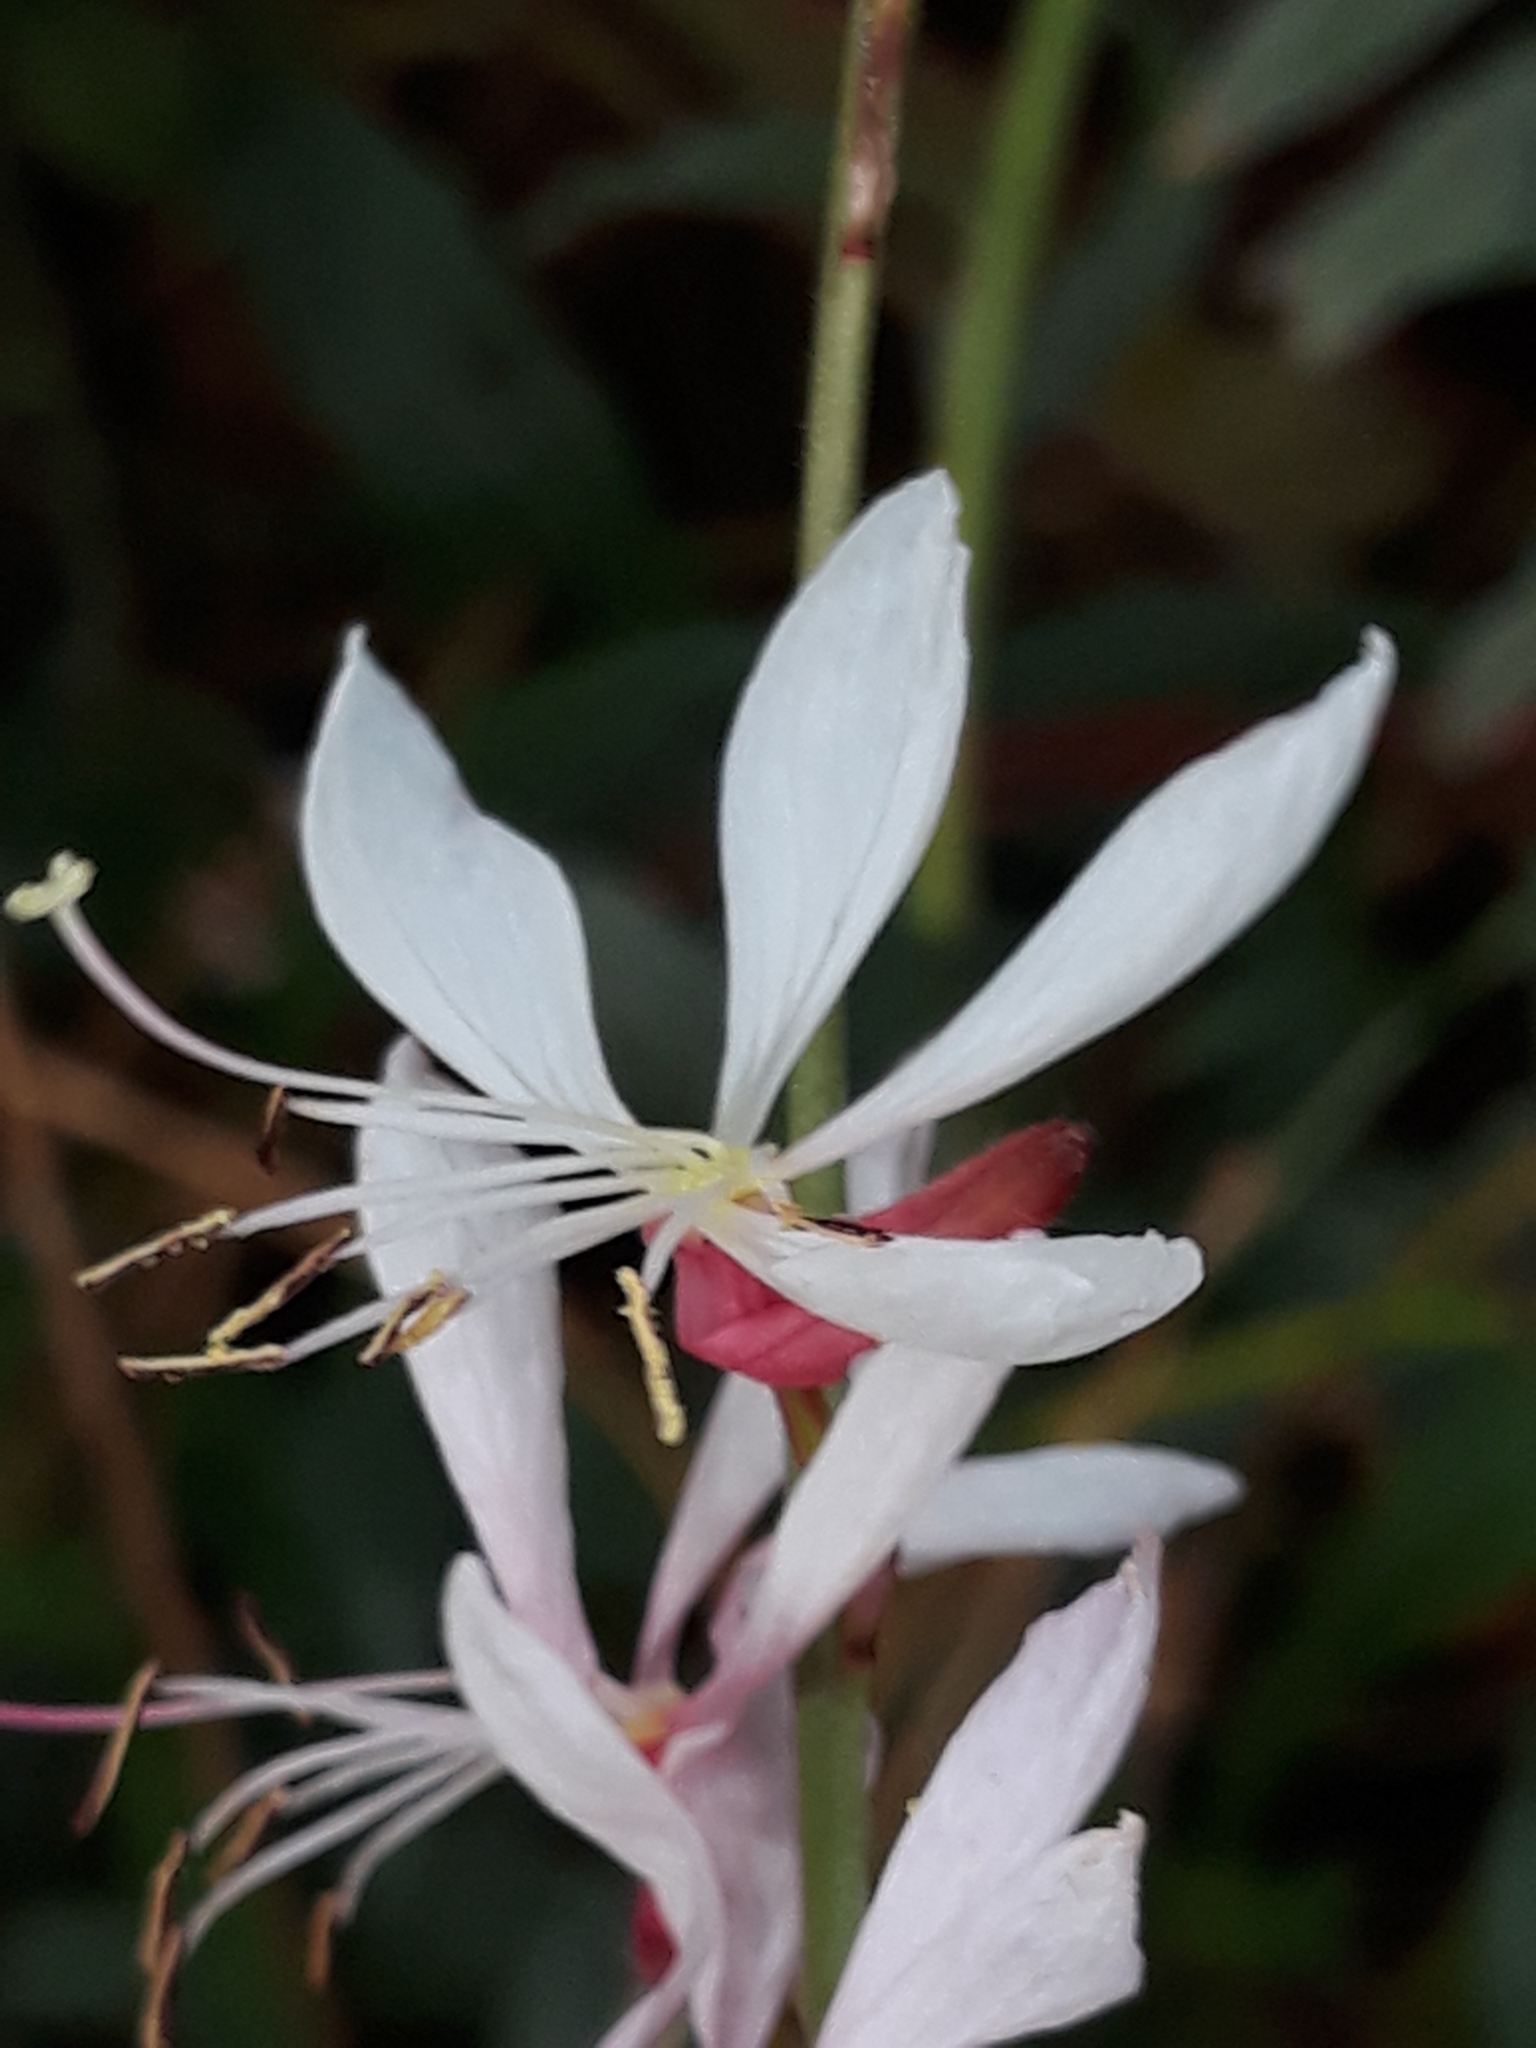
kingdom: Plantae
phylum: Tracheophyta
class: Magnoliopsida
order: Myrtales
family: Onagraceae
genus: Oenothera
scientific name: Oenothera lindheimeri
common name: Lindheimer's beeblossom
